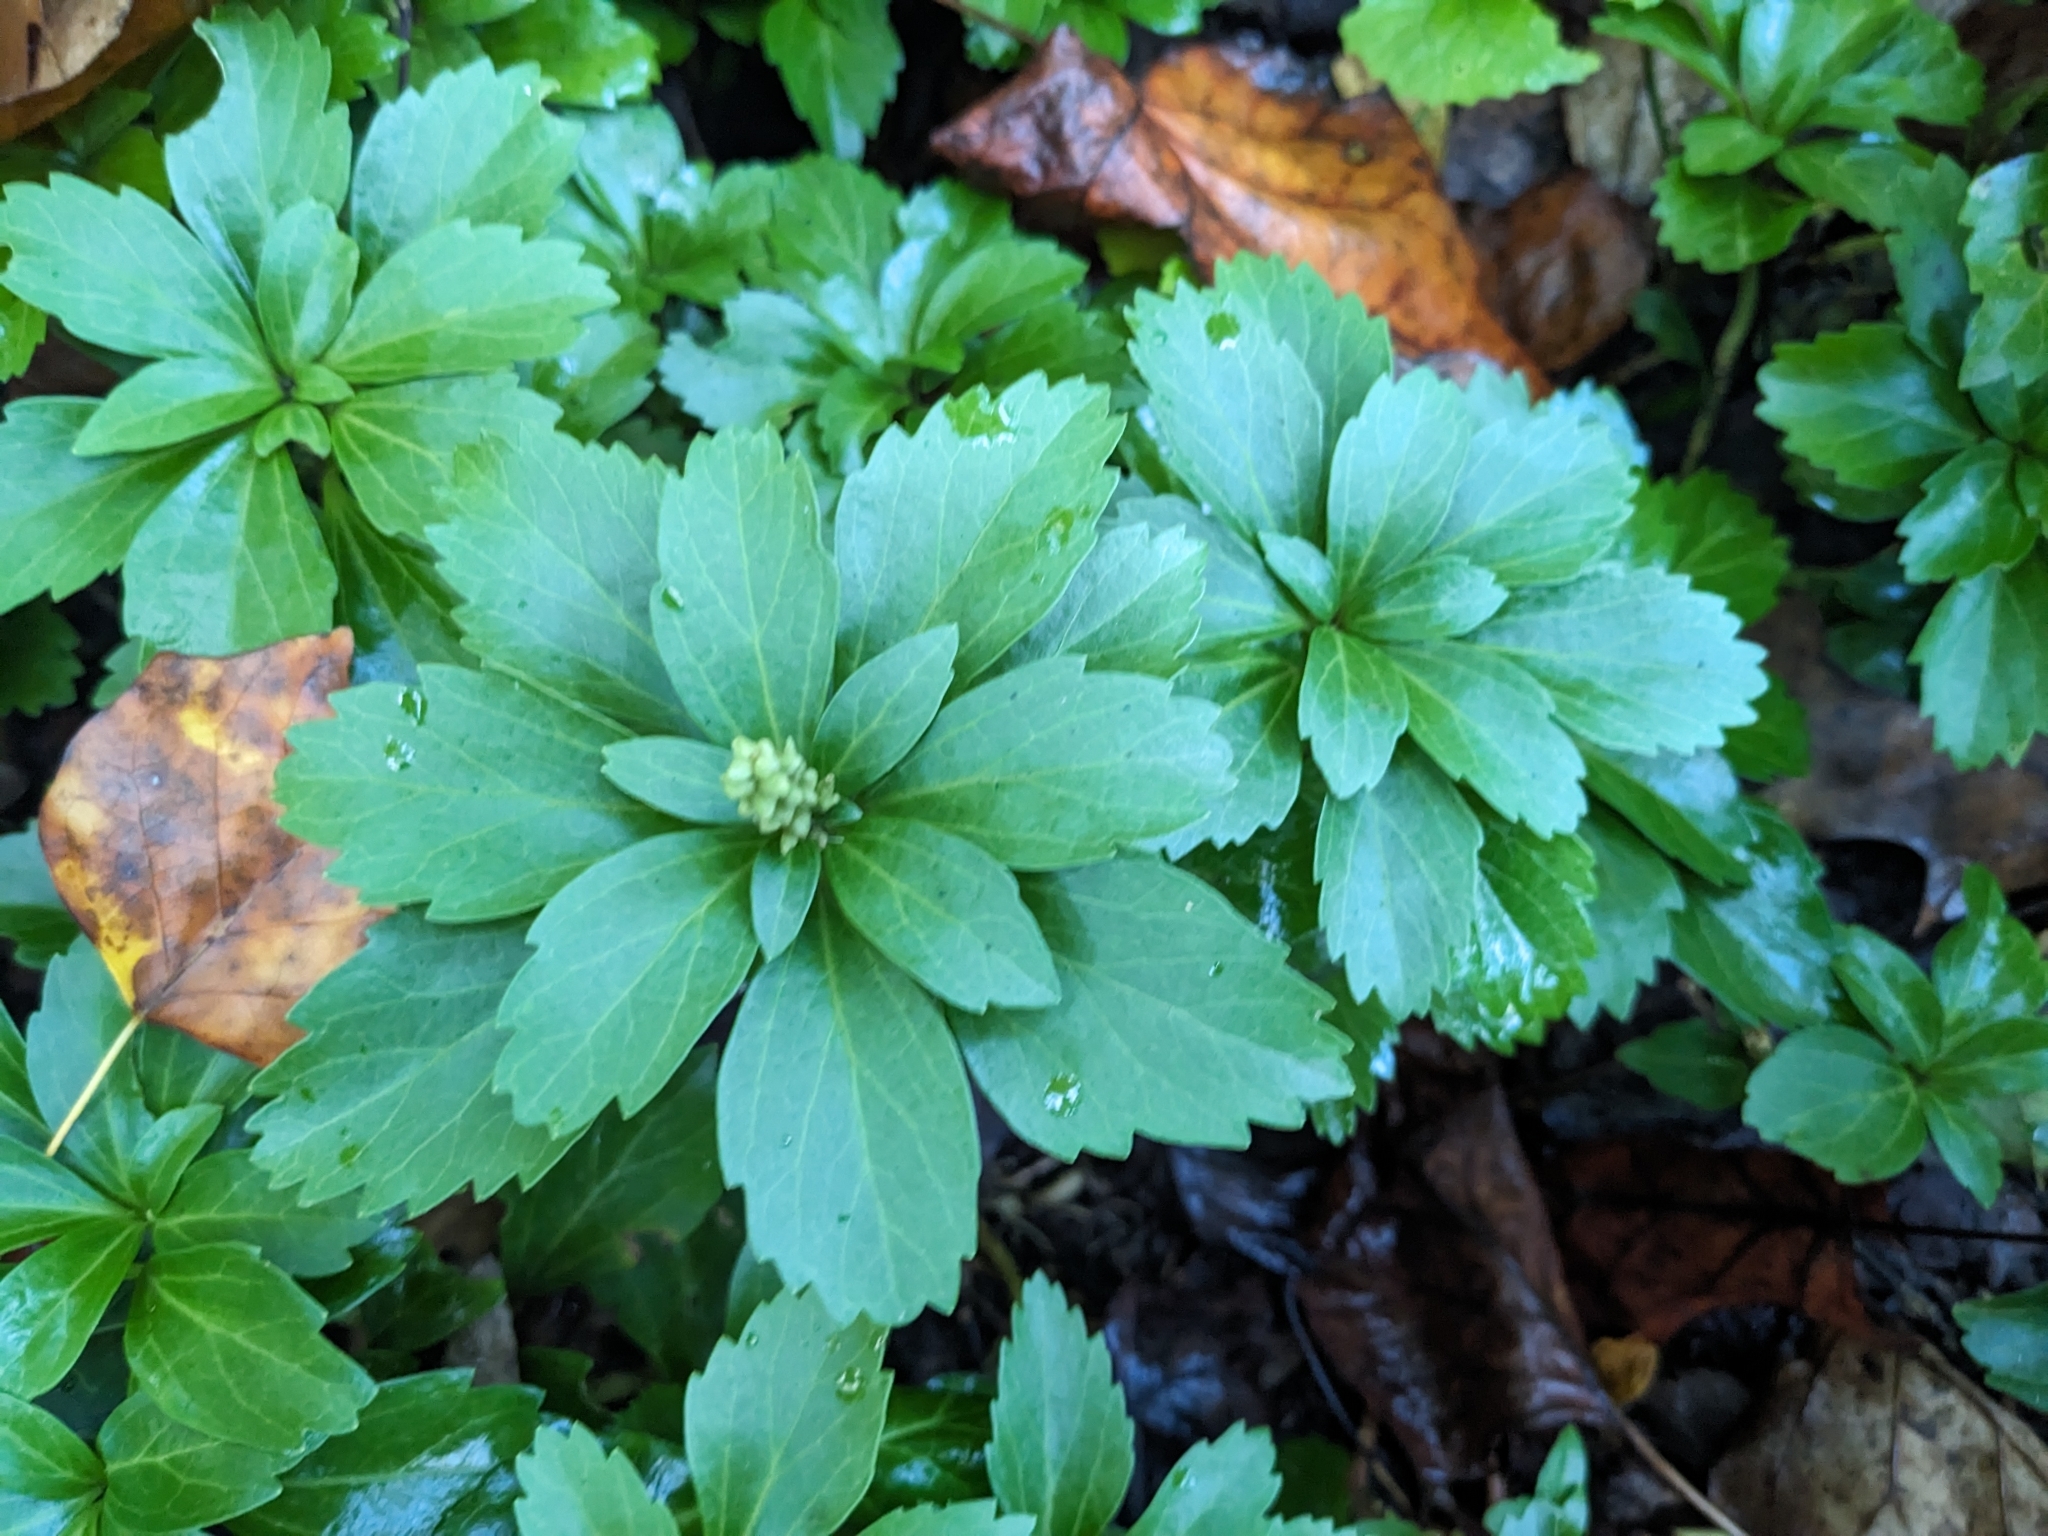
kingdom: Plantae
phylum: Tracheophyta
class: Magnoliopsida
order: Buxales
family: Buxaceae
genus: Pachysandra
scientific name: Pachysandra terminalis
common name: Japanese pachysandra
